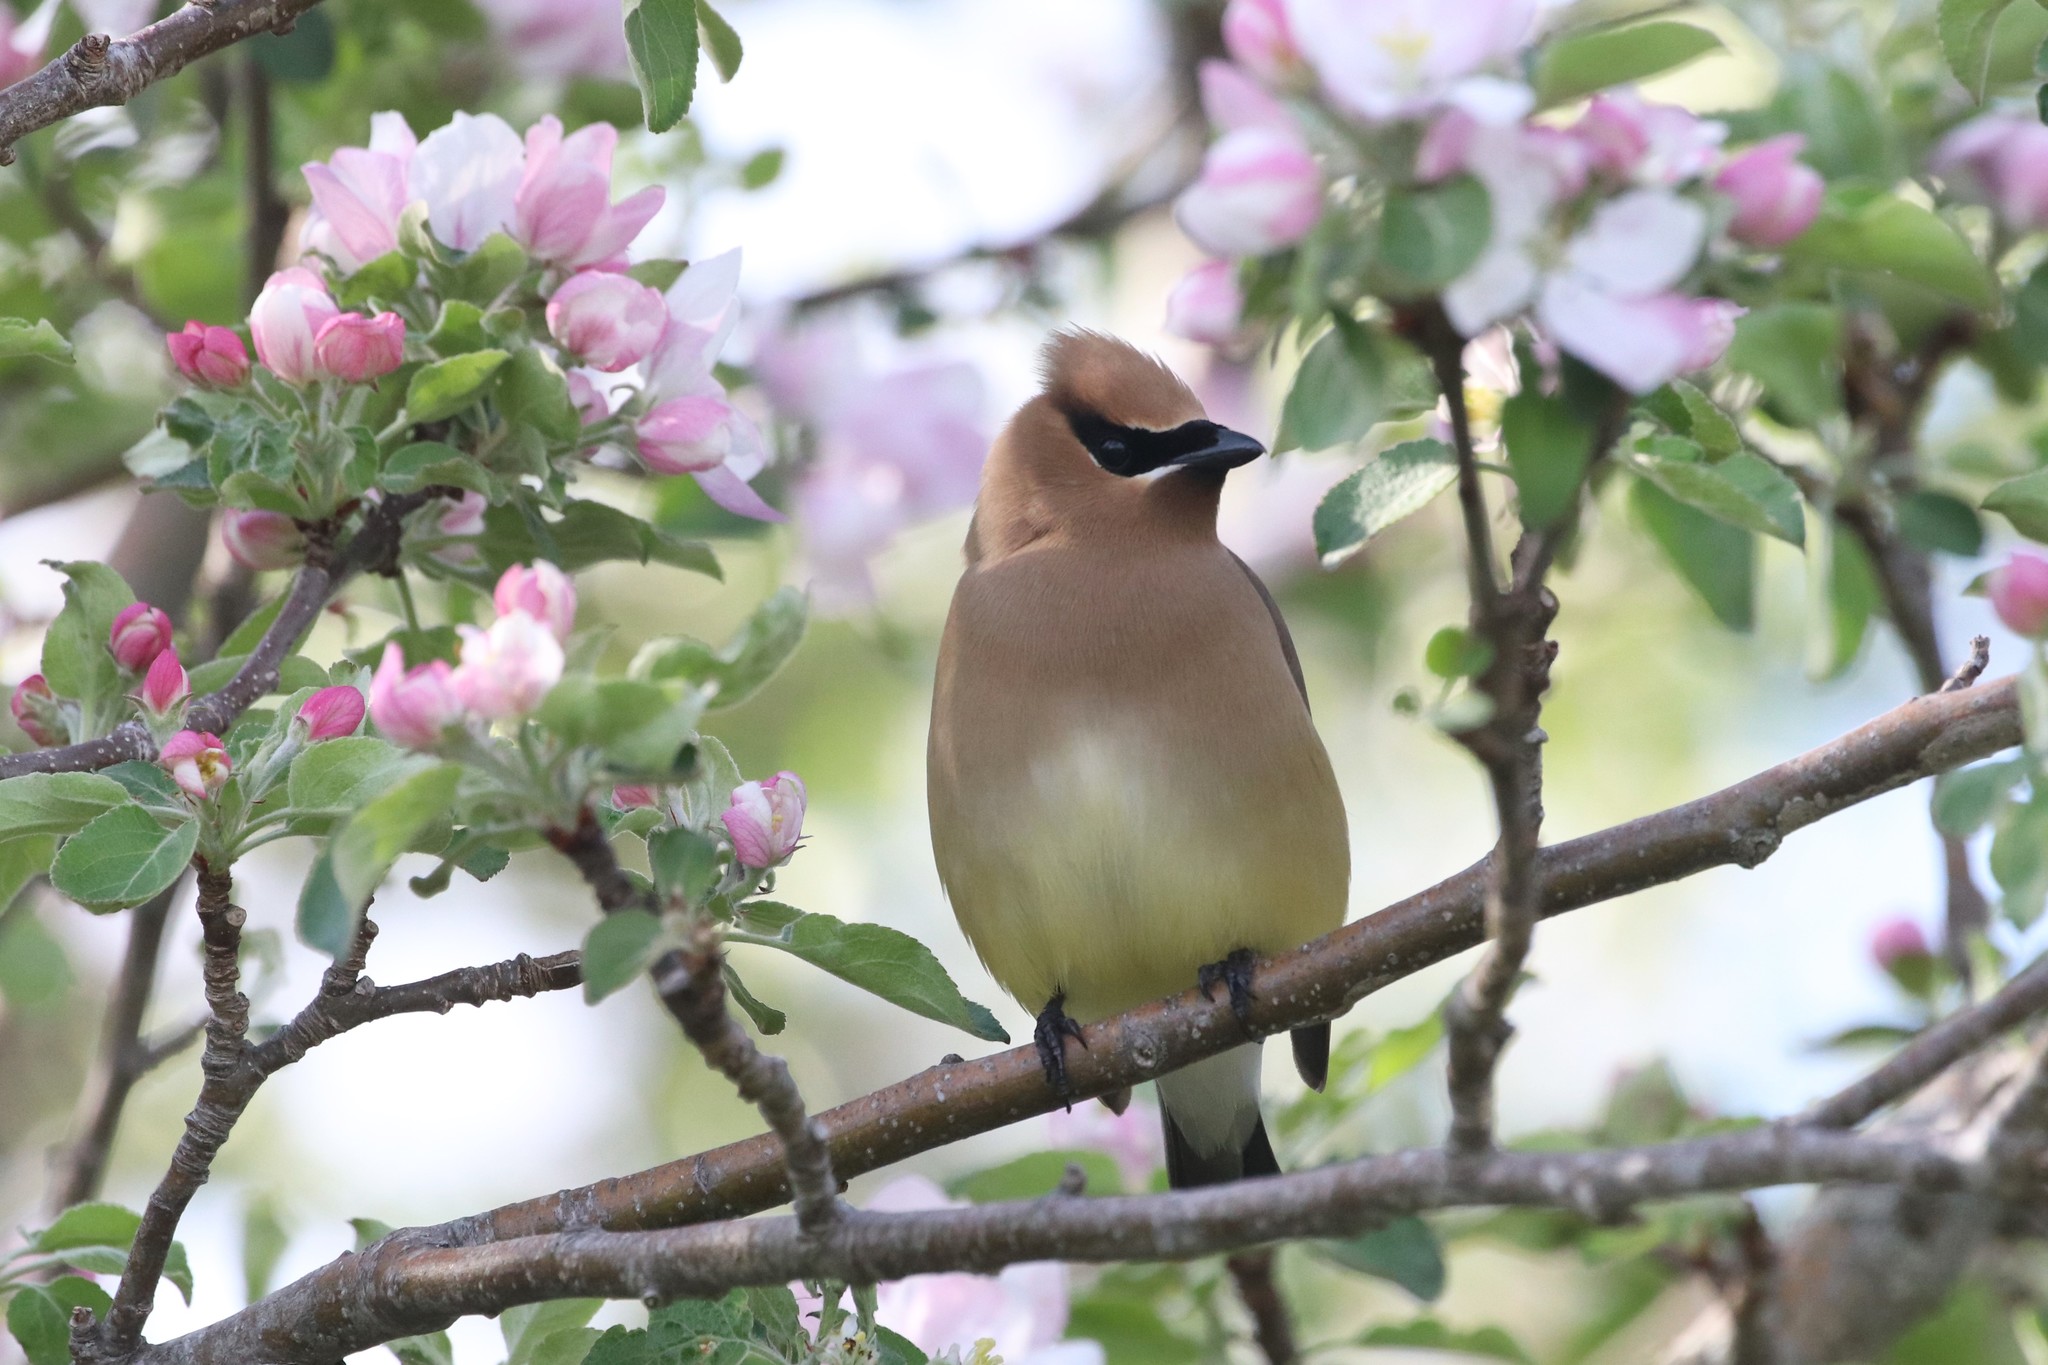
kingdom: Animalia
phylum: Chordata
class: Aves
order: Passeriformes
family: Bombycillidae
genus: Bombycilla
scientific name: Bombycilla cedrorum
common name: Cedar waxwing
